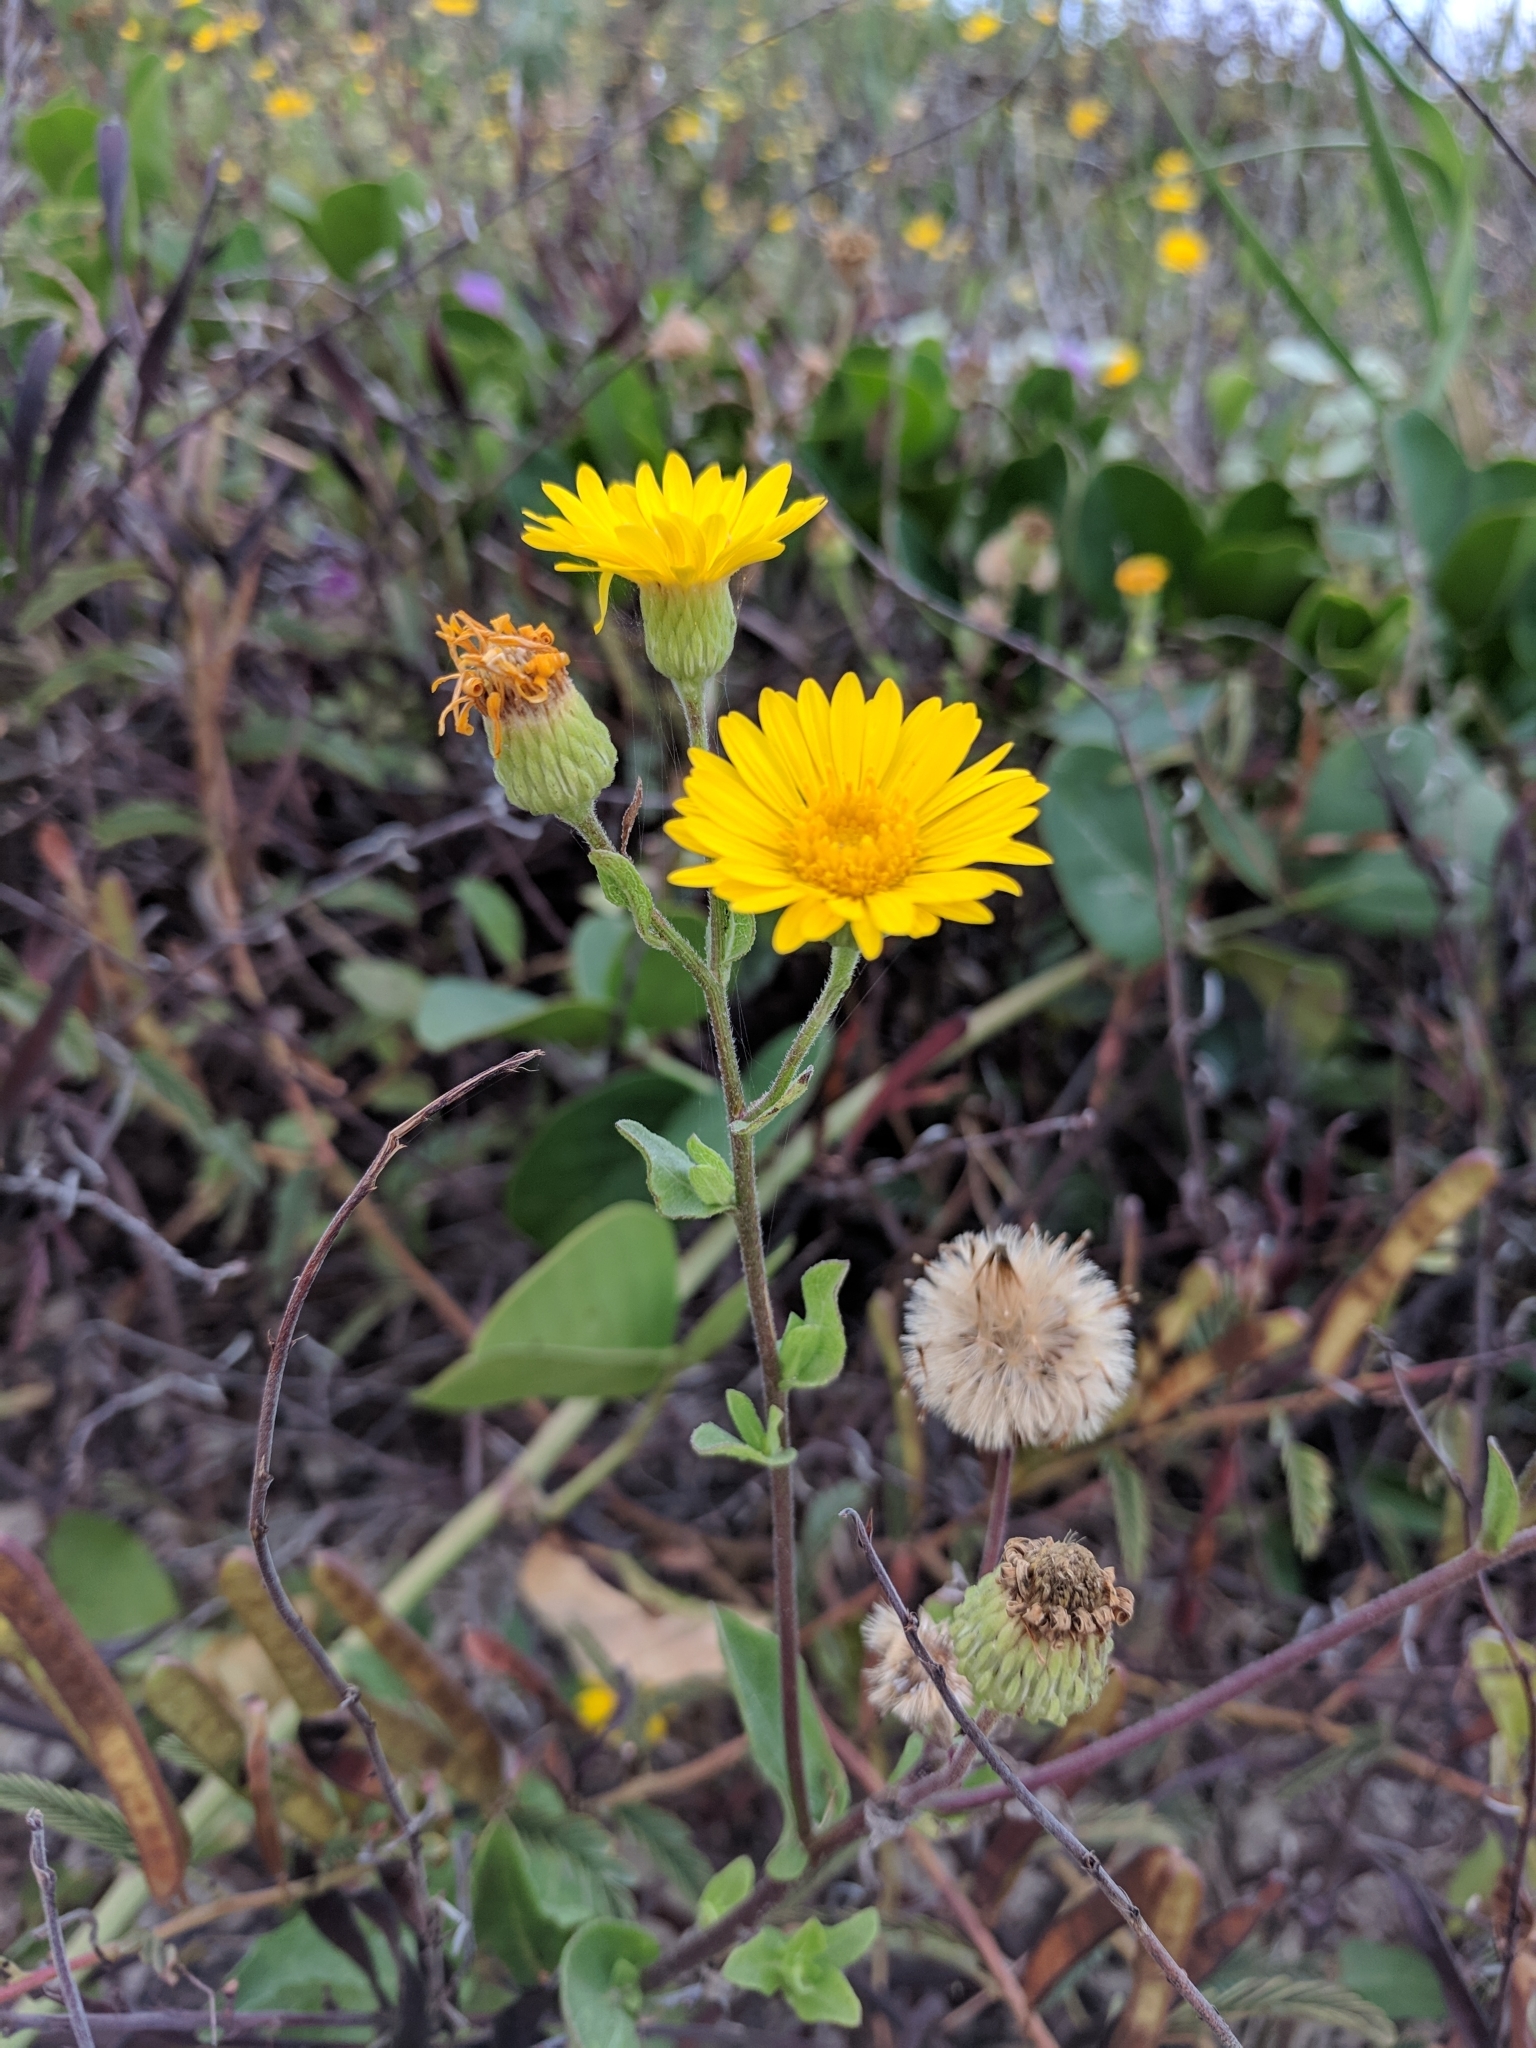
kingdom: Plantae
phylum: Tracheophyta
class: Magnoliopsida
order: Asterales
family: Asteraceae
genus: Heterotheca
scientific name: Heterotheca subaxillaris
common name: Camphorweed
